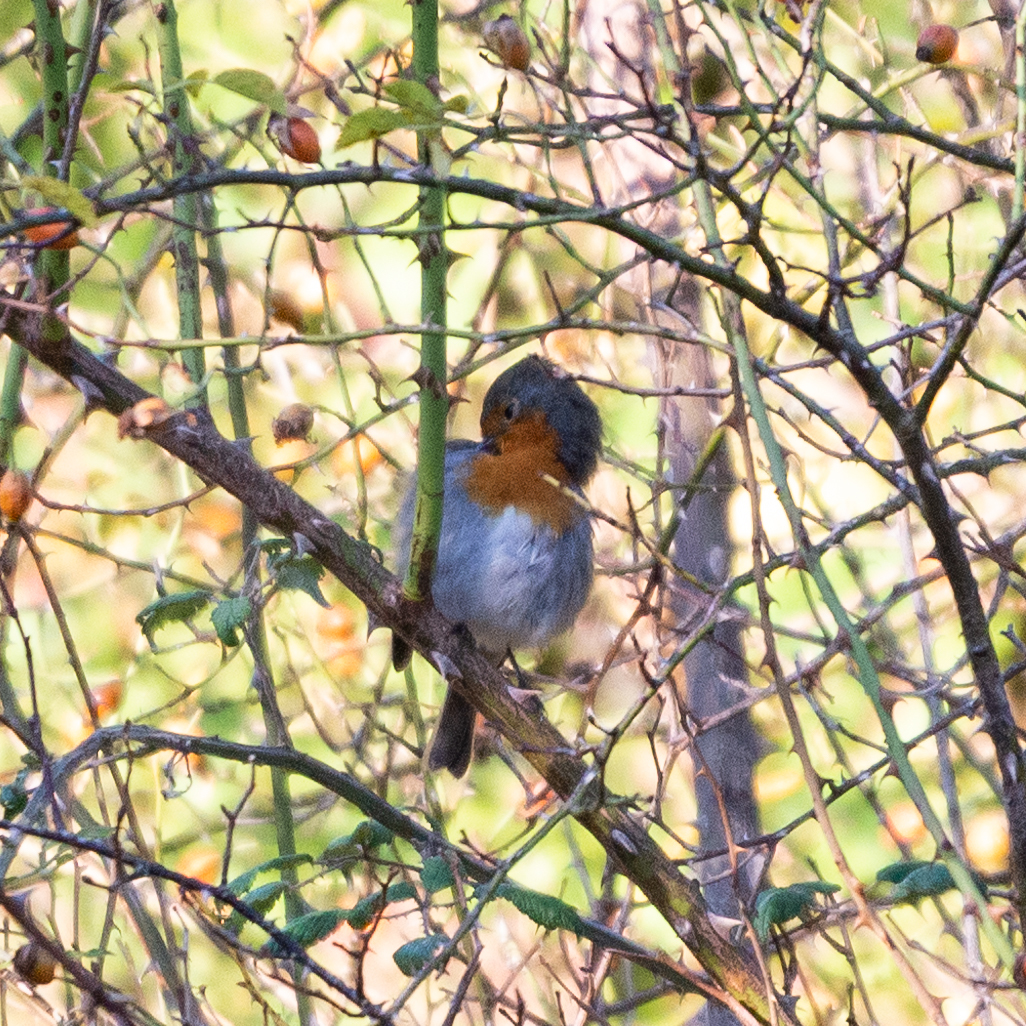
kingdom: Animalia
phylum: Chordata
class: Aves
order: Passeriformes
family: Muscicapidae
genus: Erithacus
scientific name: Erithacus rubecula
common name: European robin
